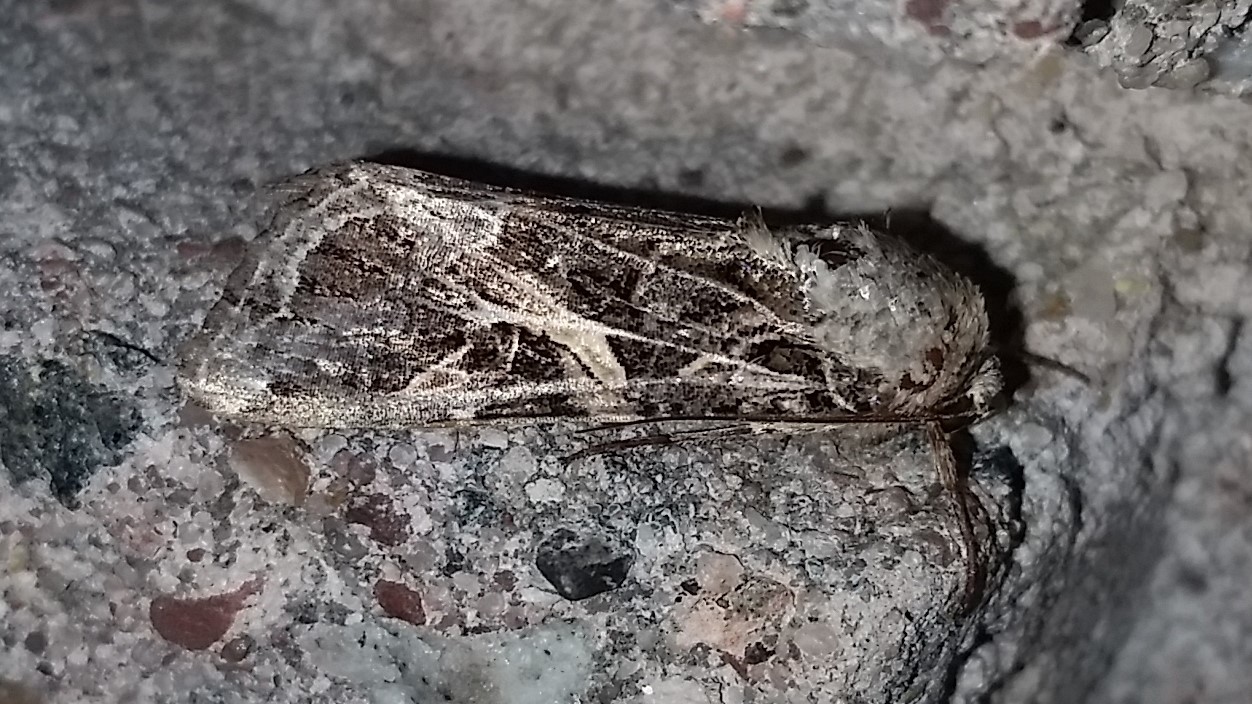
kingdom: Animalia
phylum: Arthropoda
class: Insecta
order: Lepidoptera
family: Noctuidae
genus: Spodoptera
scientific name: Spodoptera ornithogalli
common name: Yellow-striped armyworm
